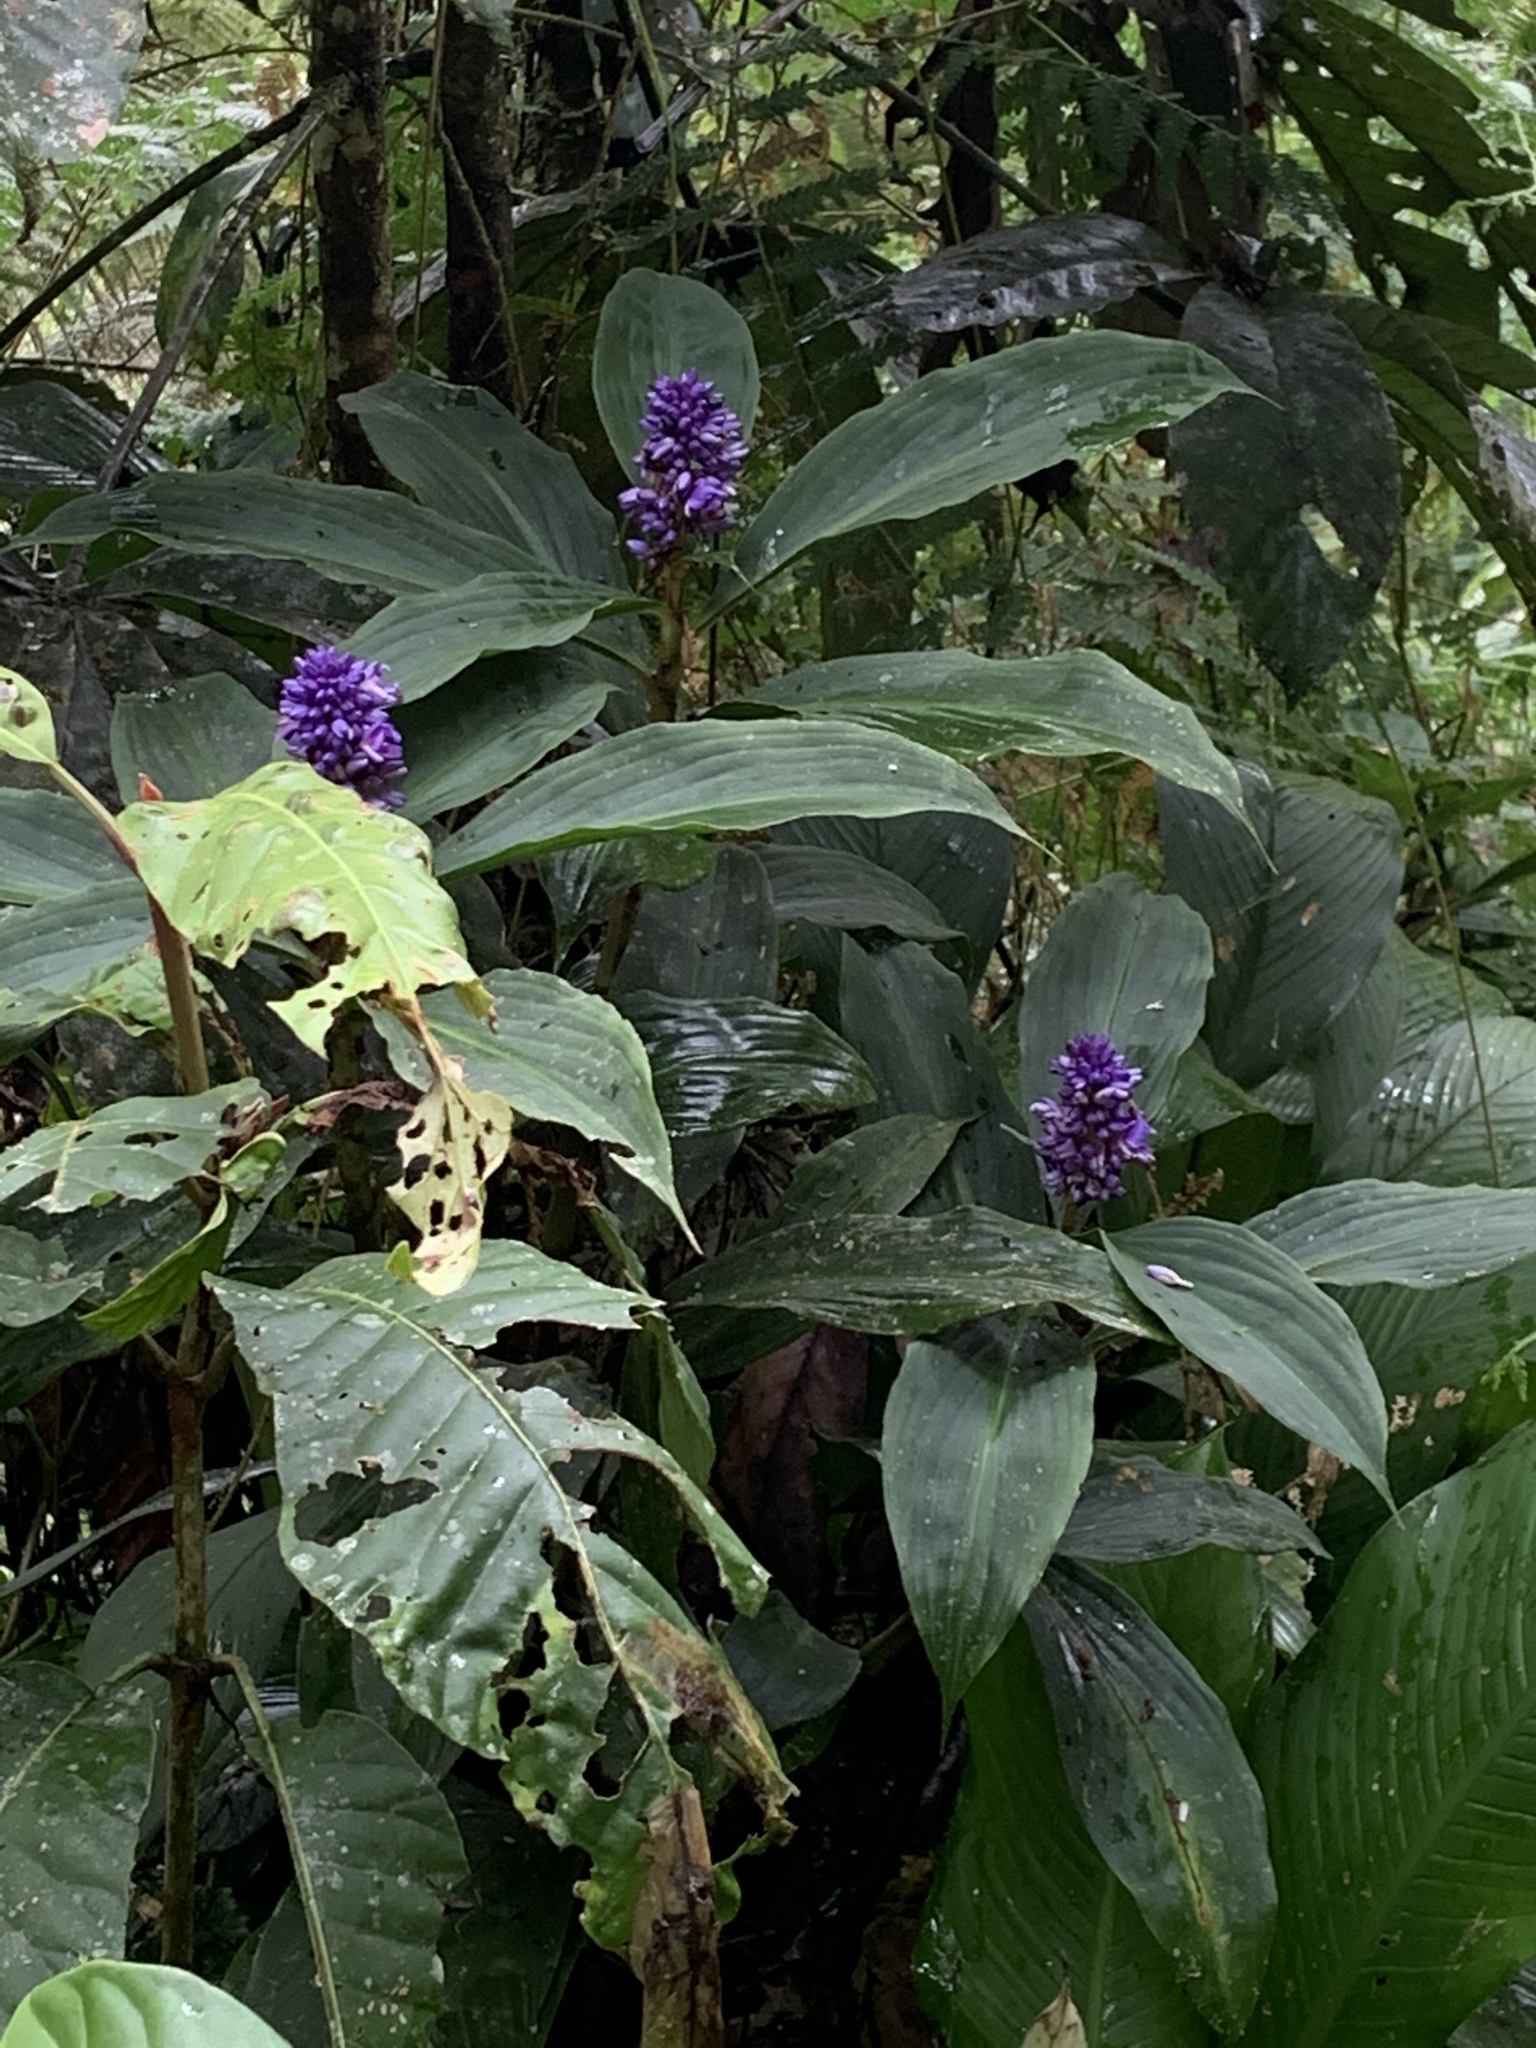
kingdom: Plantae
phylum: Tracheophyta
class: Liliopsida
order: Commelinales
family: Commelinaceae
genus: Dichorisandra
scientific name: Dichorisandra thyrsiflora
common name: Blue-ginger
